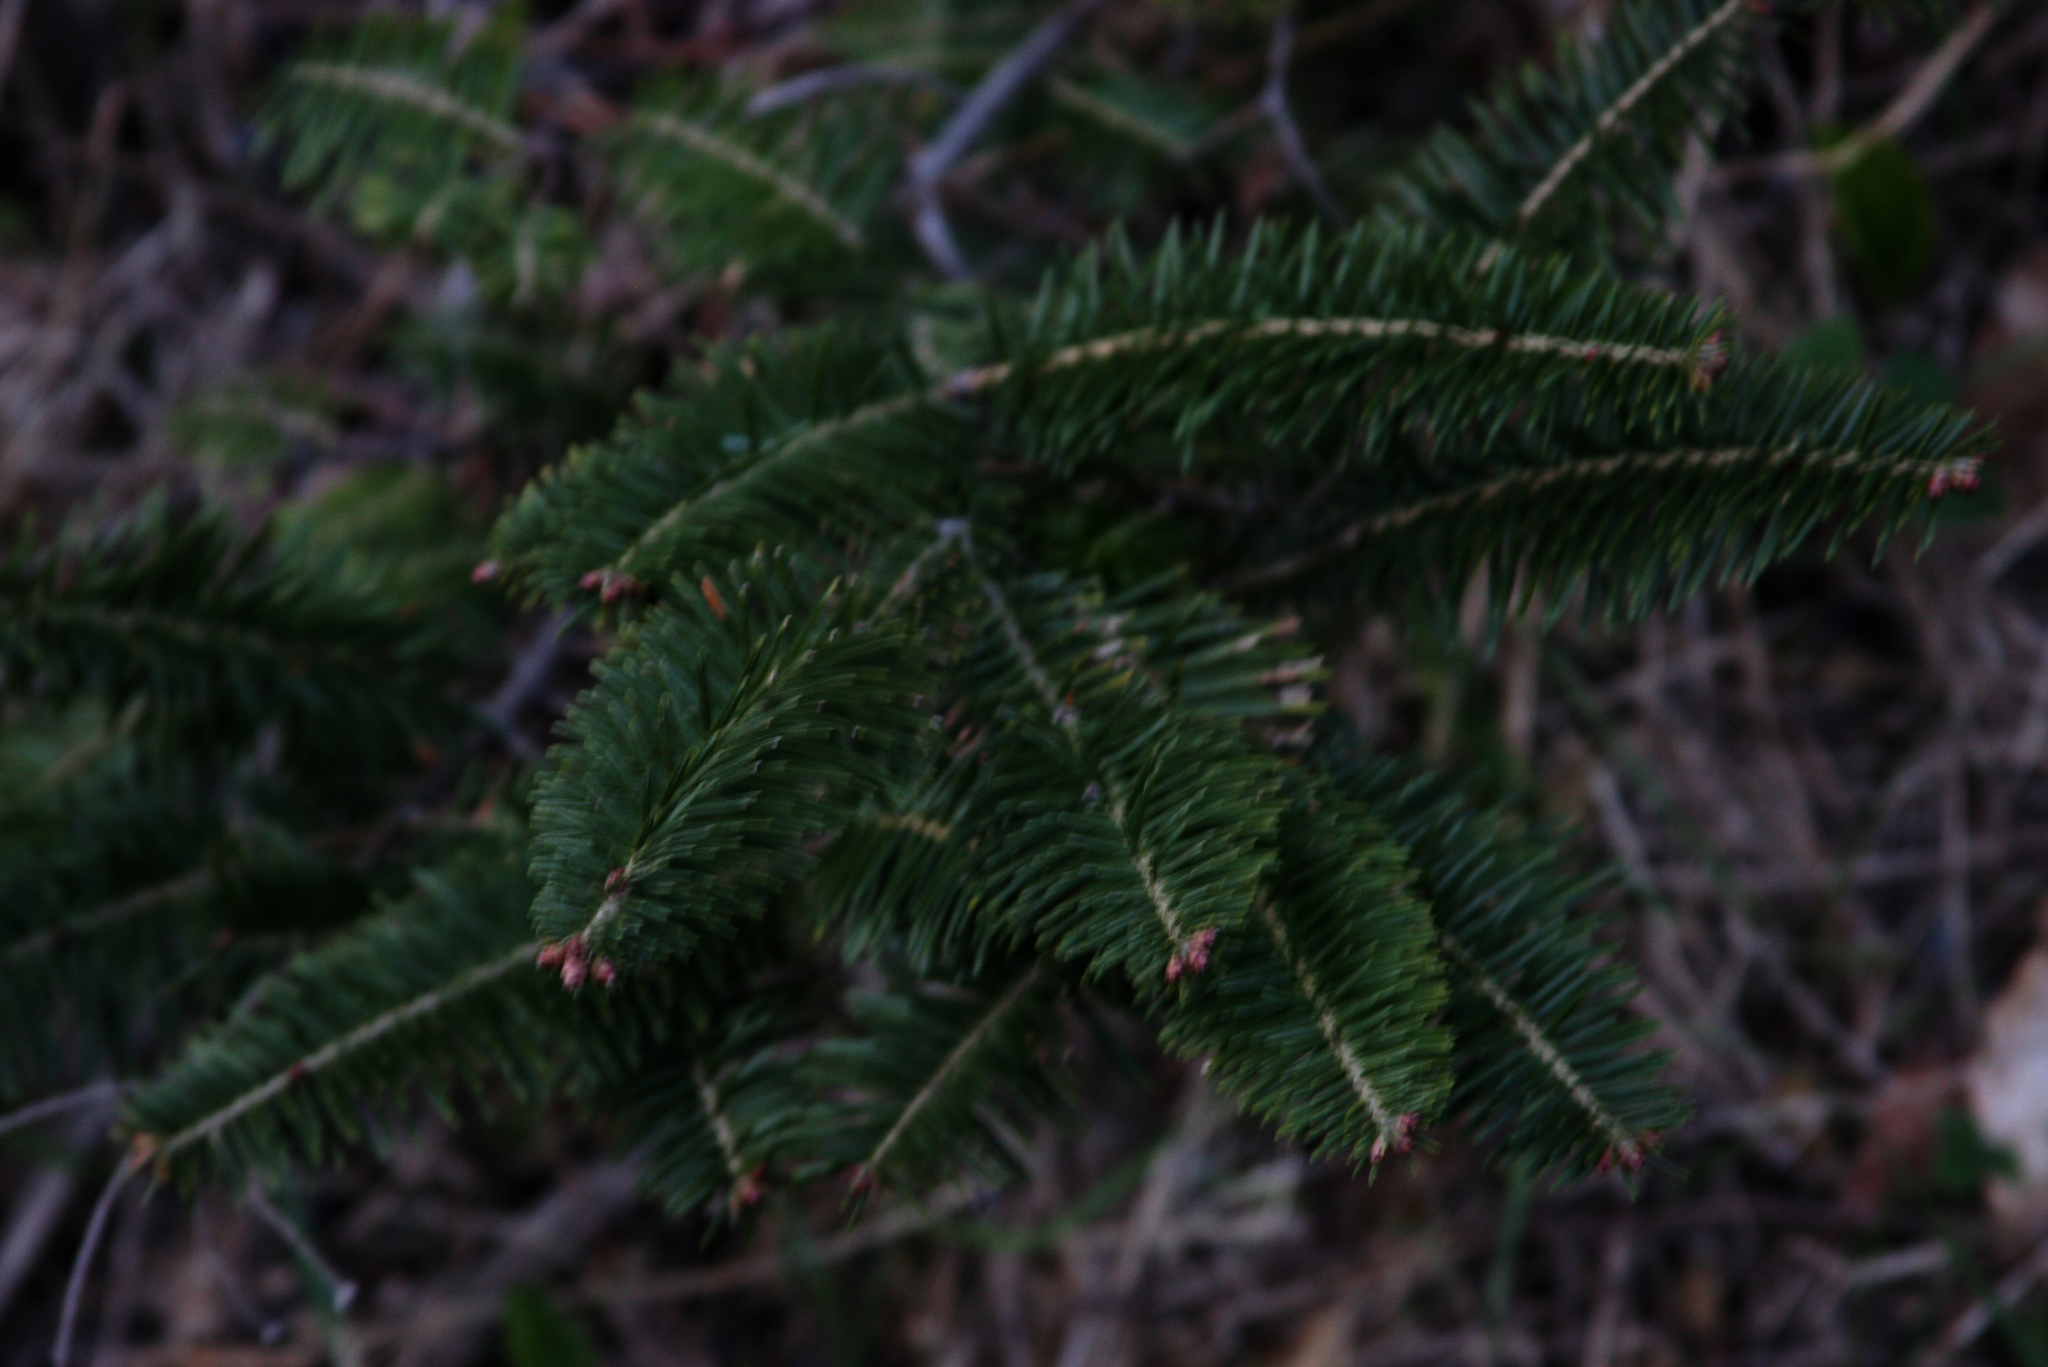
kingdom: Plantae
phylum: Tracheophyta
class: Pinopsida
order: Pinales
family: Pinaceae
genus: Abies
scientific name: Abies balsamea
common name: Balsam fir
